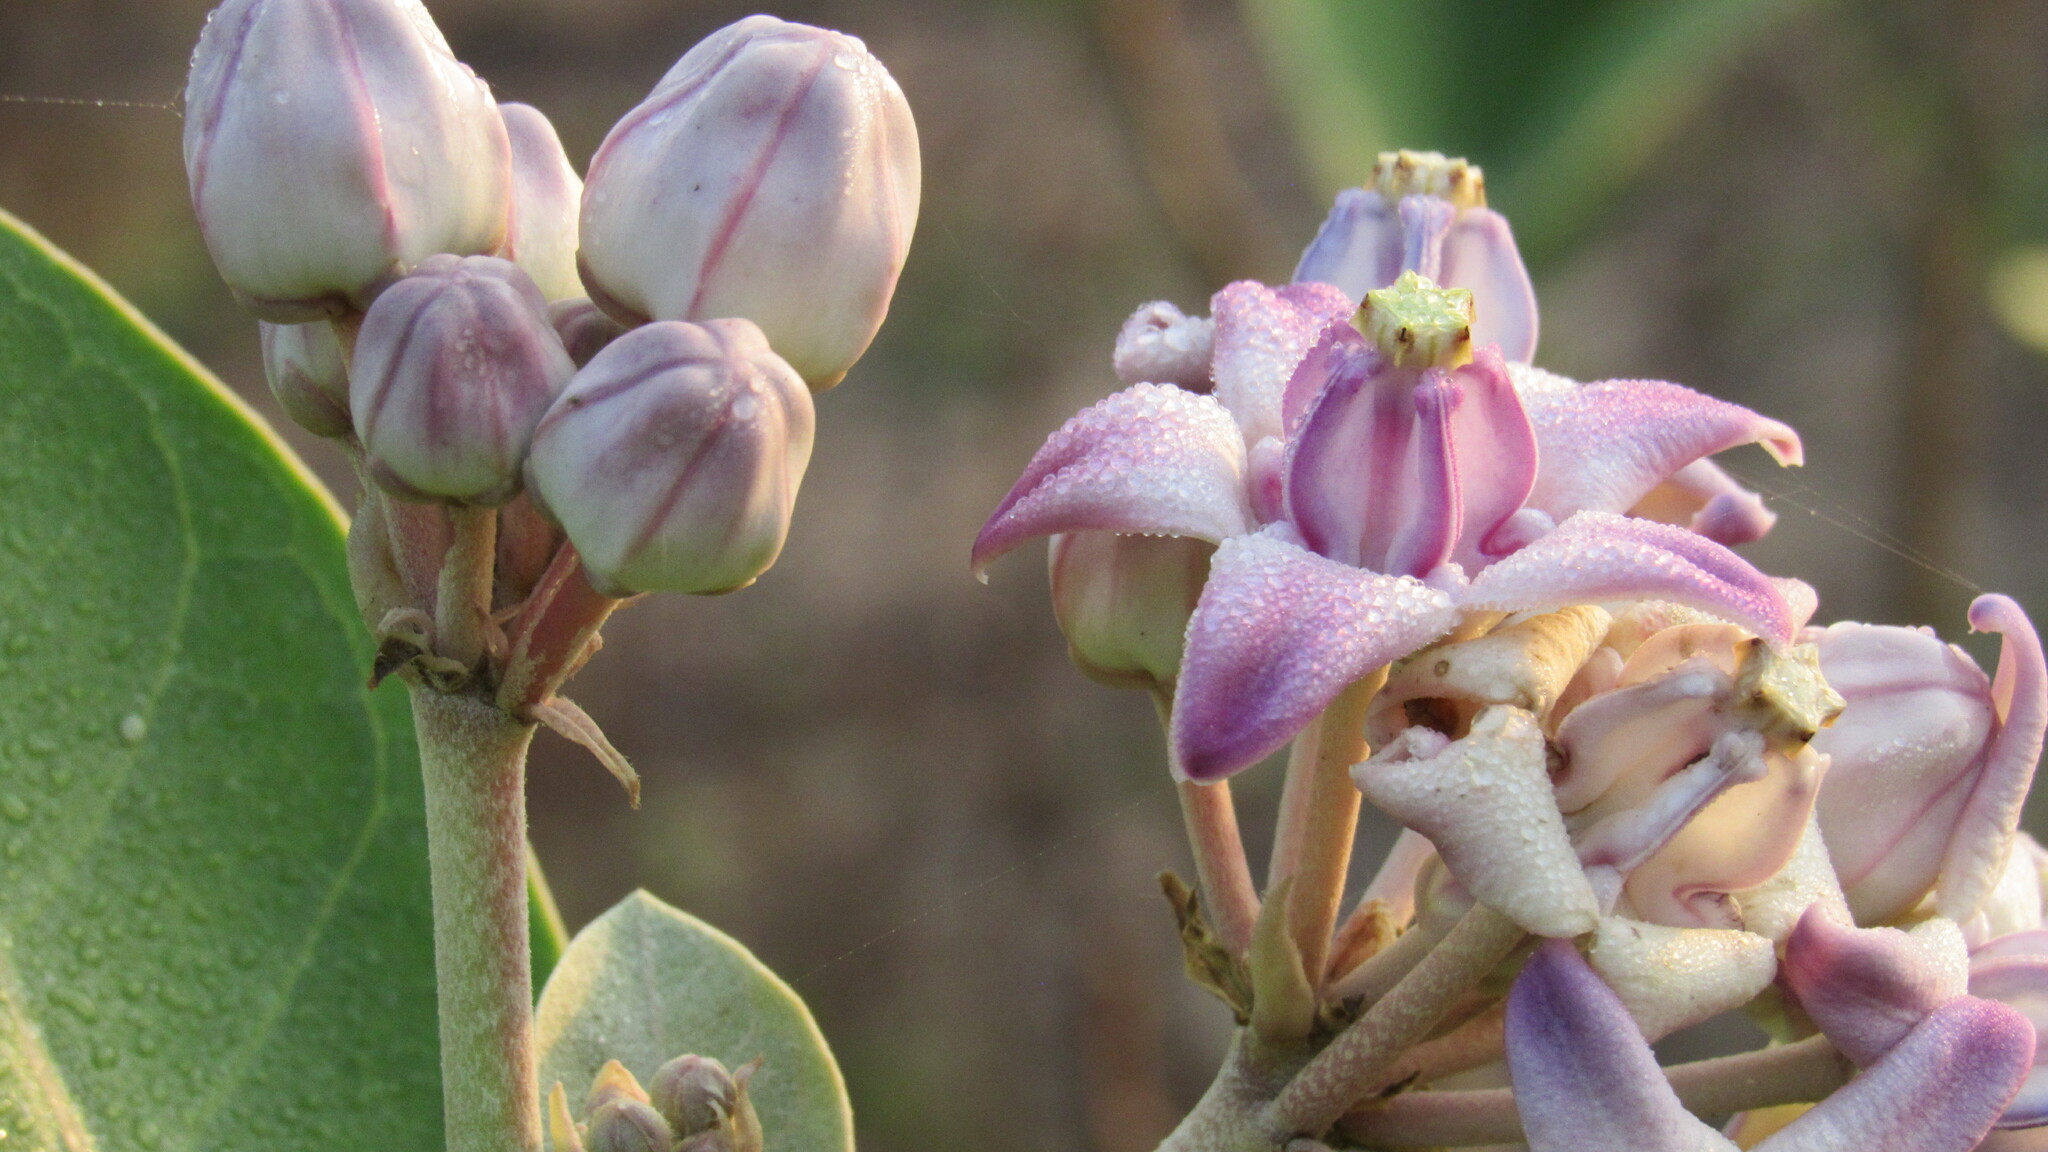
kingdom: Plantae
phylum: Tracheophyta
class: Magnoliopsida
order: Gentianales
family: Apocynaceae
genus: Calotropis
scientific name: Calotropis gigantea
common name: Crown flower
